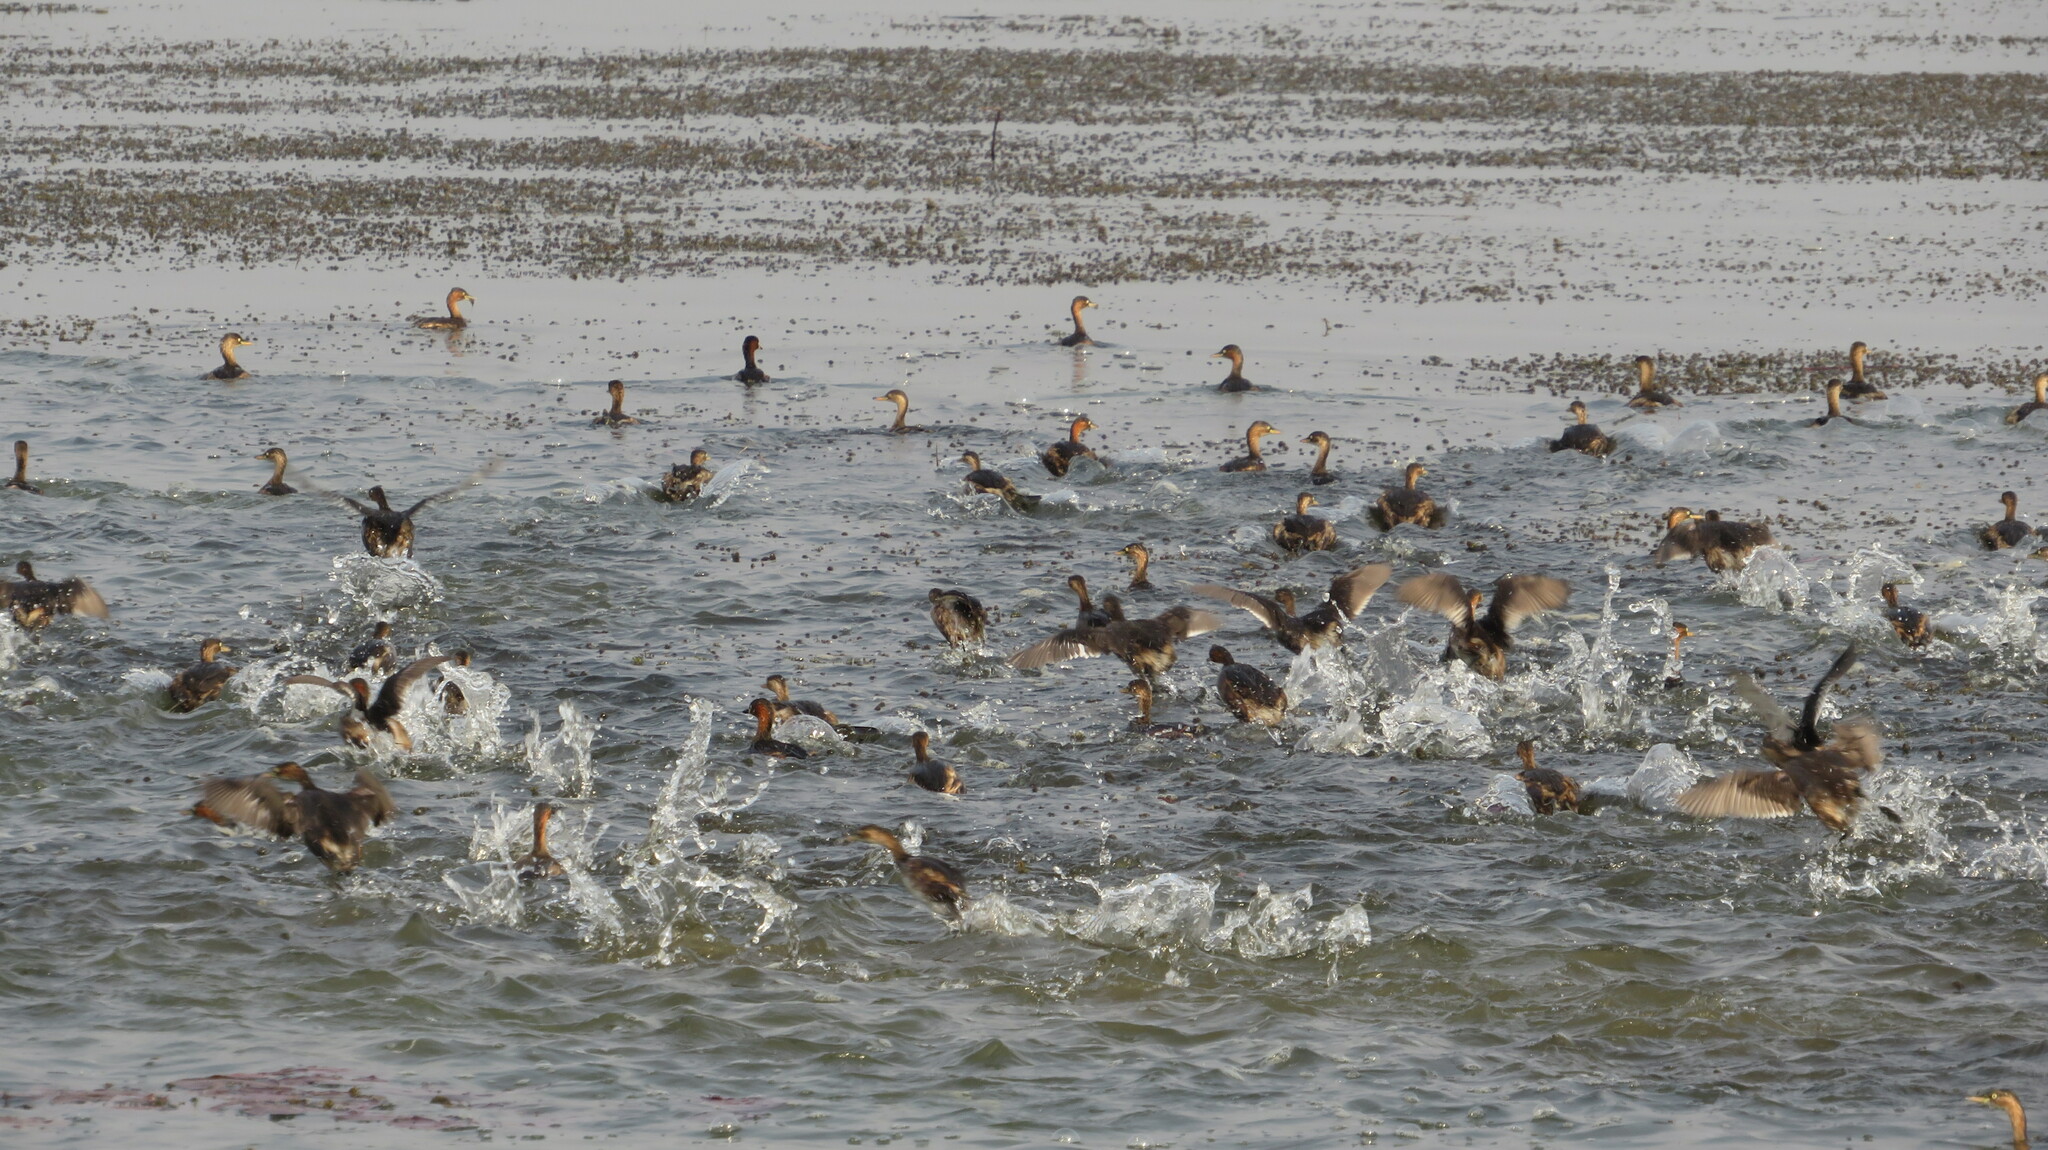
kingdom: Animalia
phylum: Chordata
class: Aves
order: Podicipediformes
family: Podicipedidae
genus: Tachybaptus
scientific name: Tachybaptus ruficollis
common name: Little grebe
